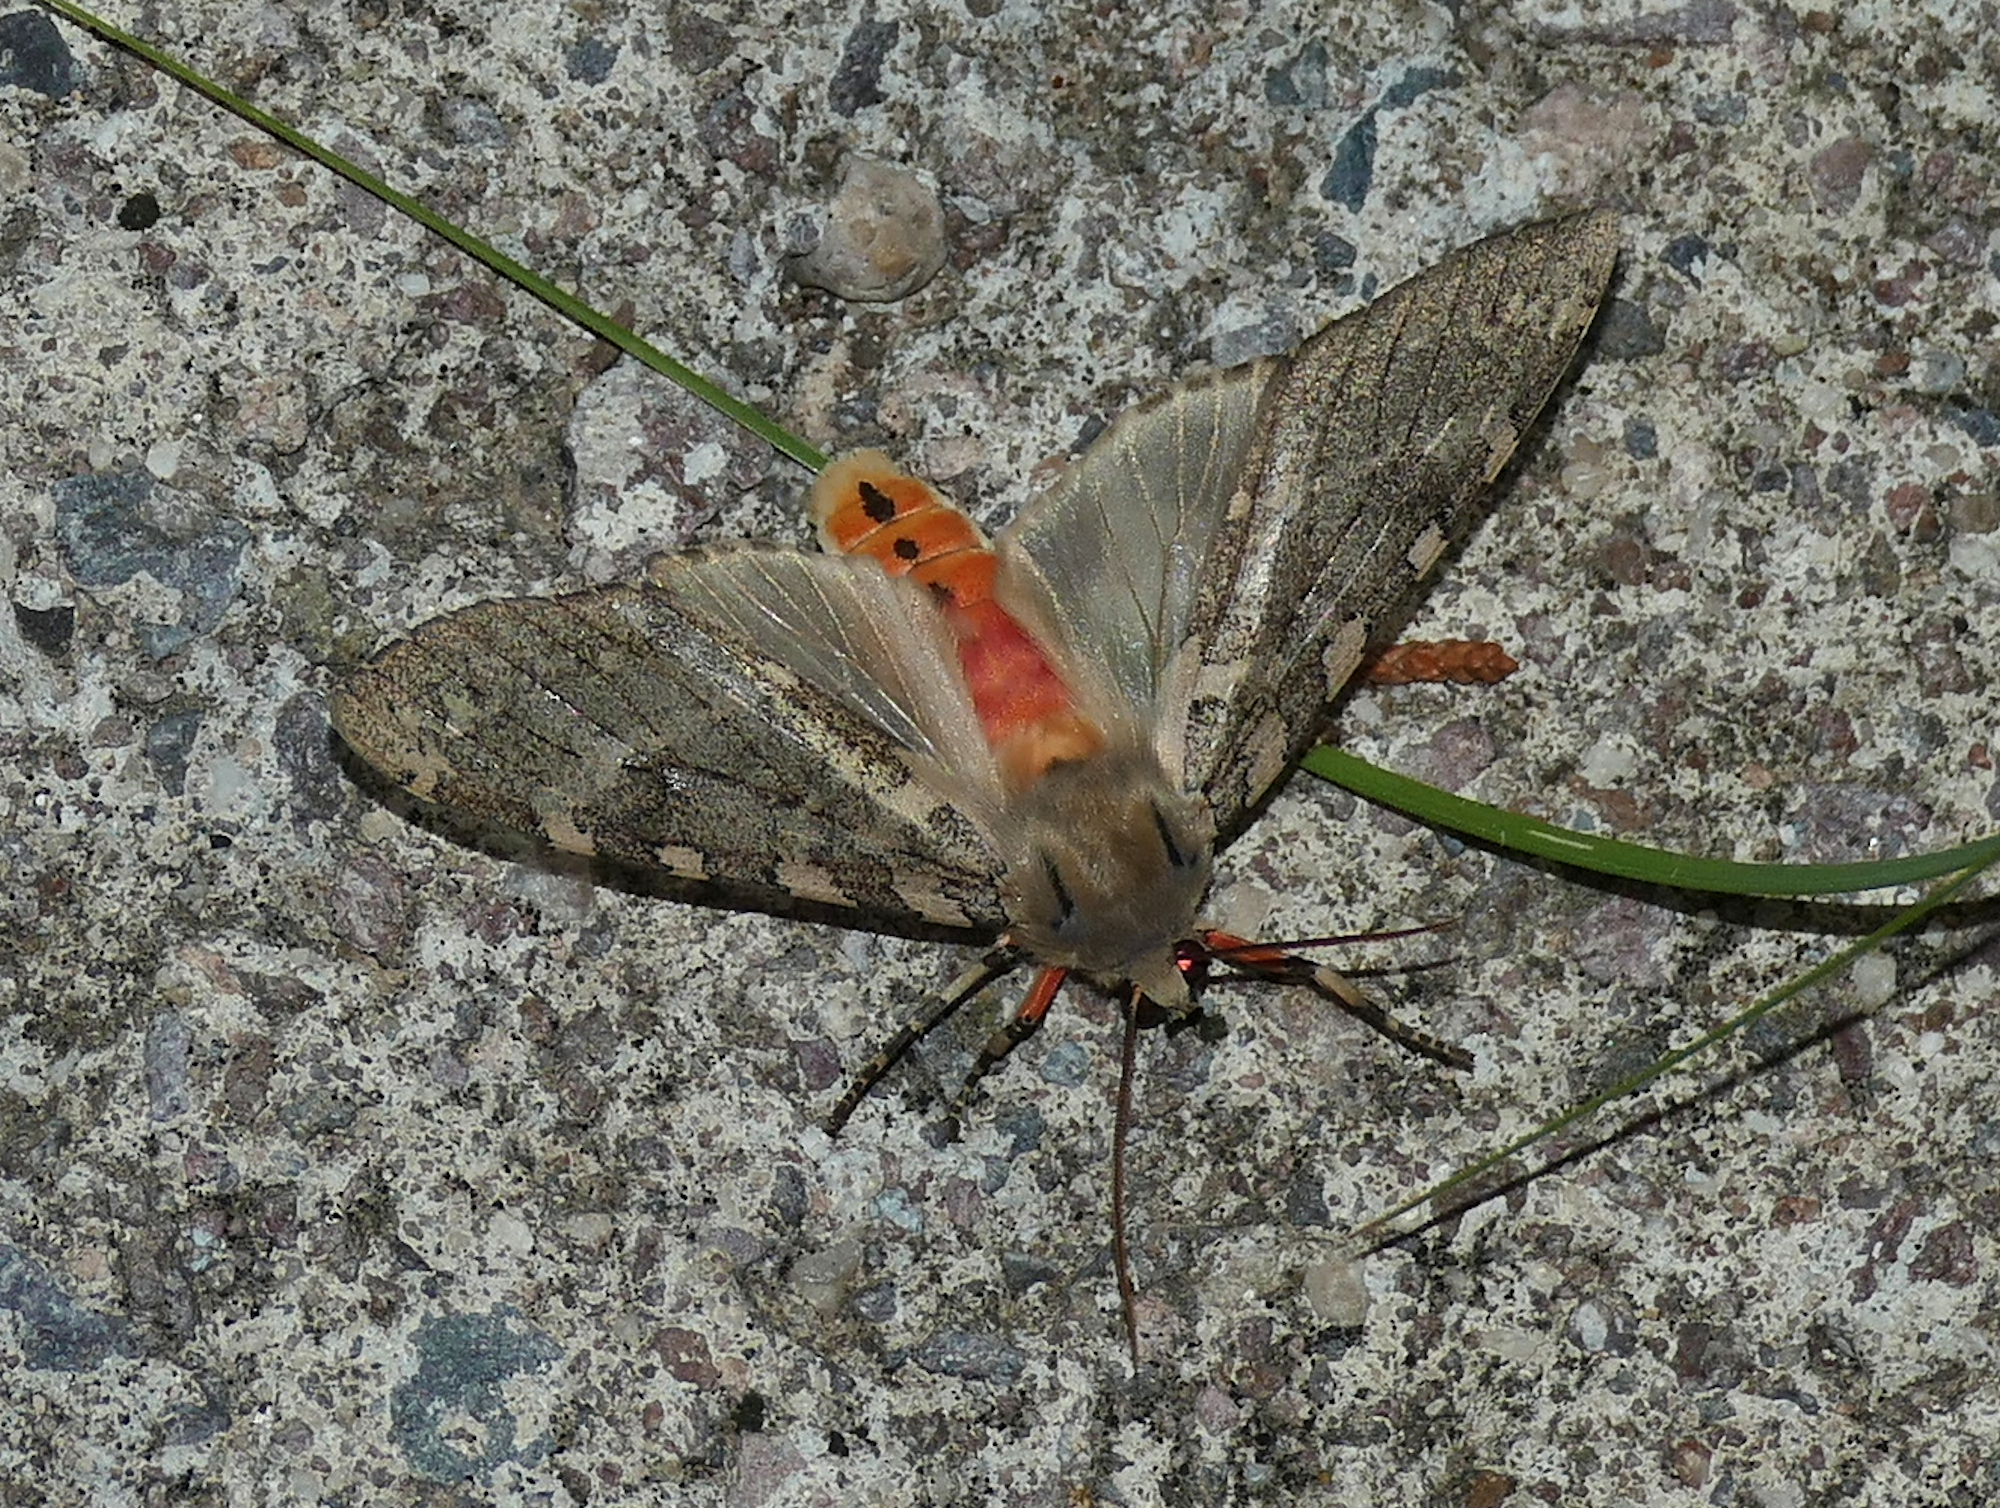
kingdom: Animalia
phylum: Arthropoda
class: Insecta
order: Lepidoptera
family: Erebidae
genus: Hemihyalea
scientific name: Hemihyalea labecula
